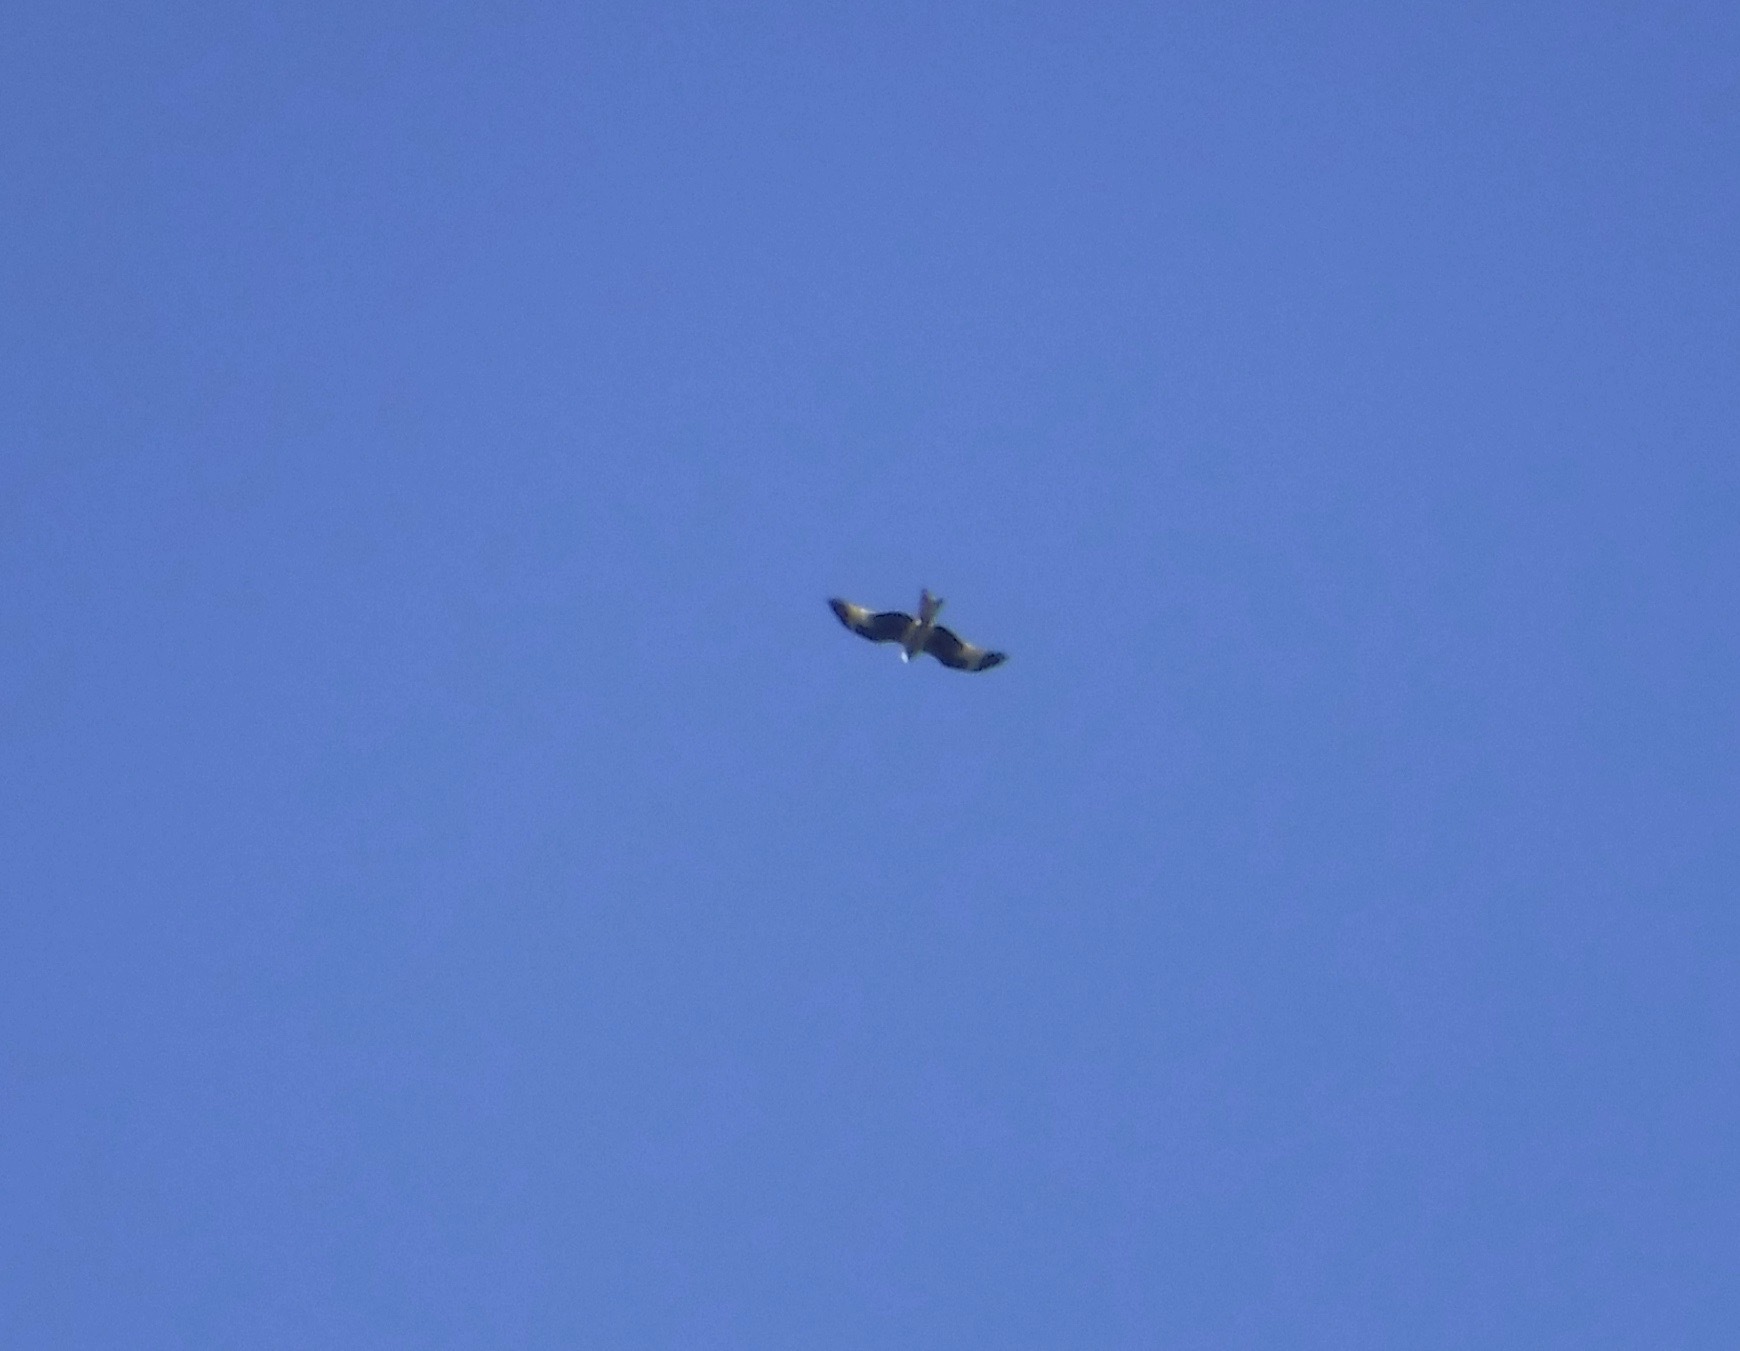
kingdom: Animalia
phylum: Chordata
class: Aves
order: Accipitriformes
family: Accipitridae
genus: Milvus
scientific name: Milvus milvus
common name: Red kite
